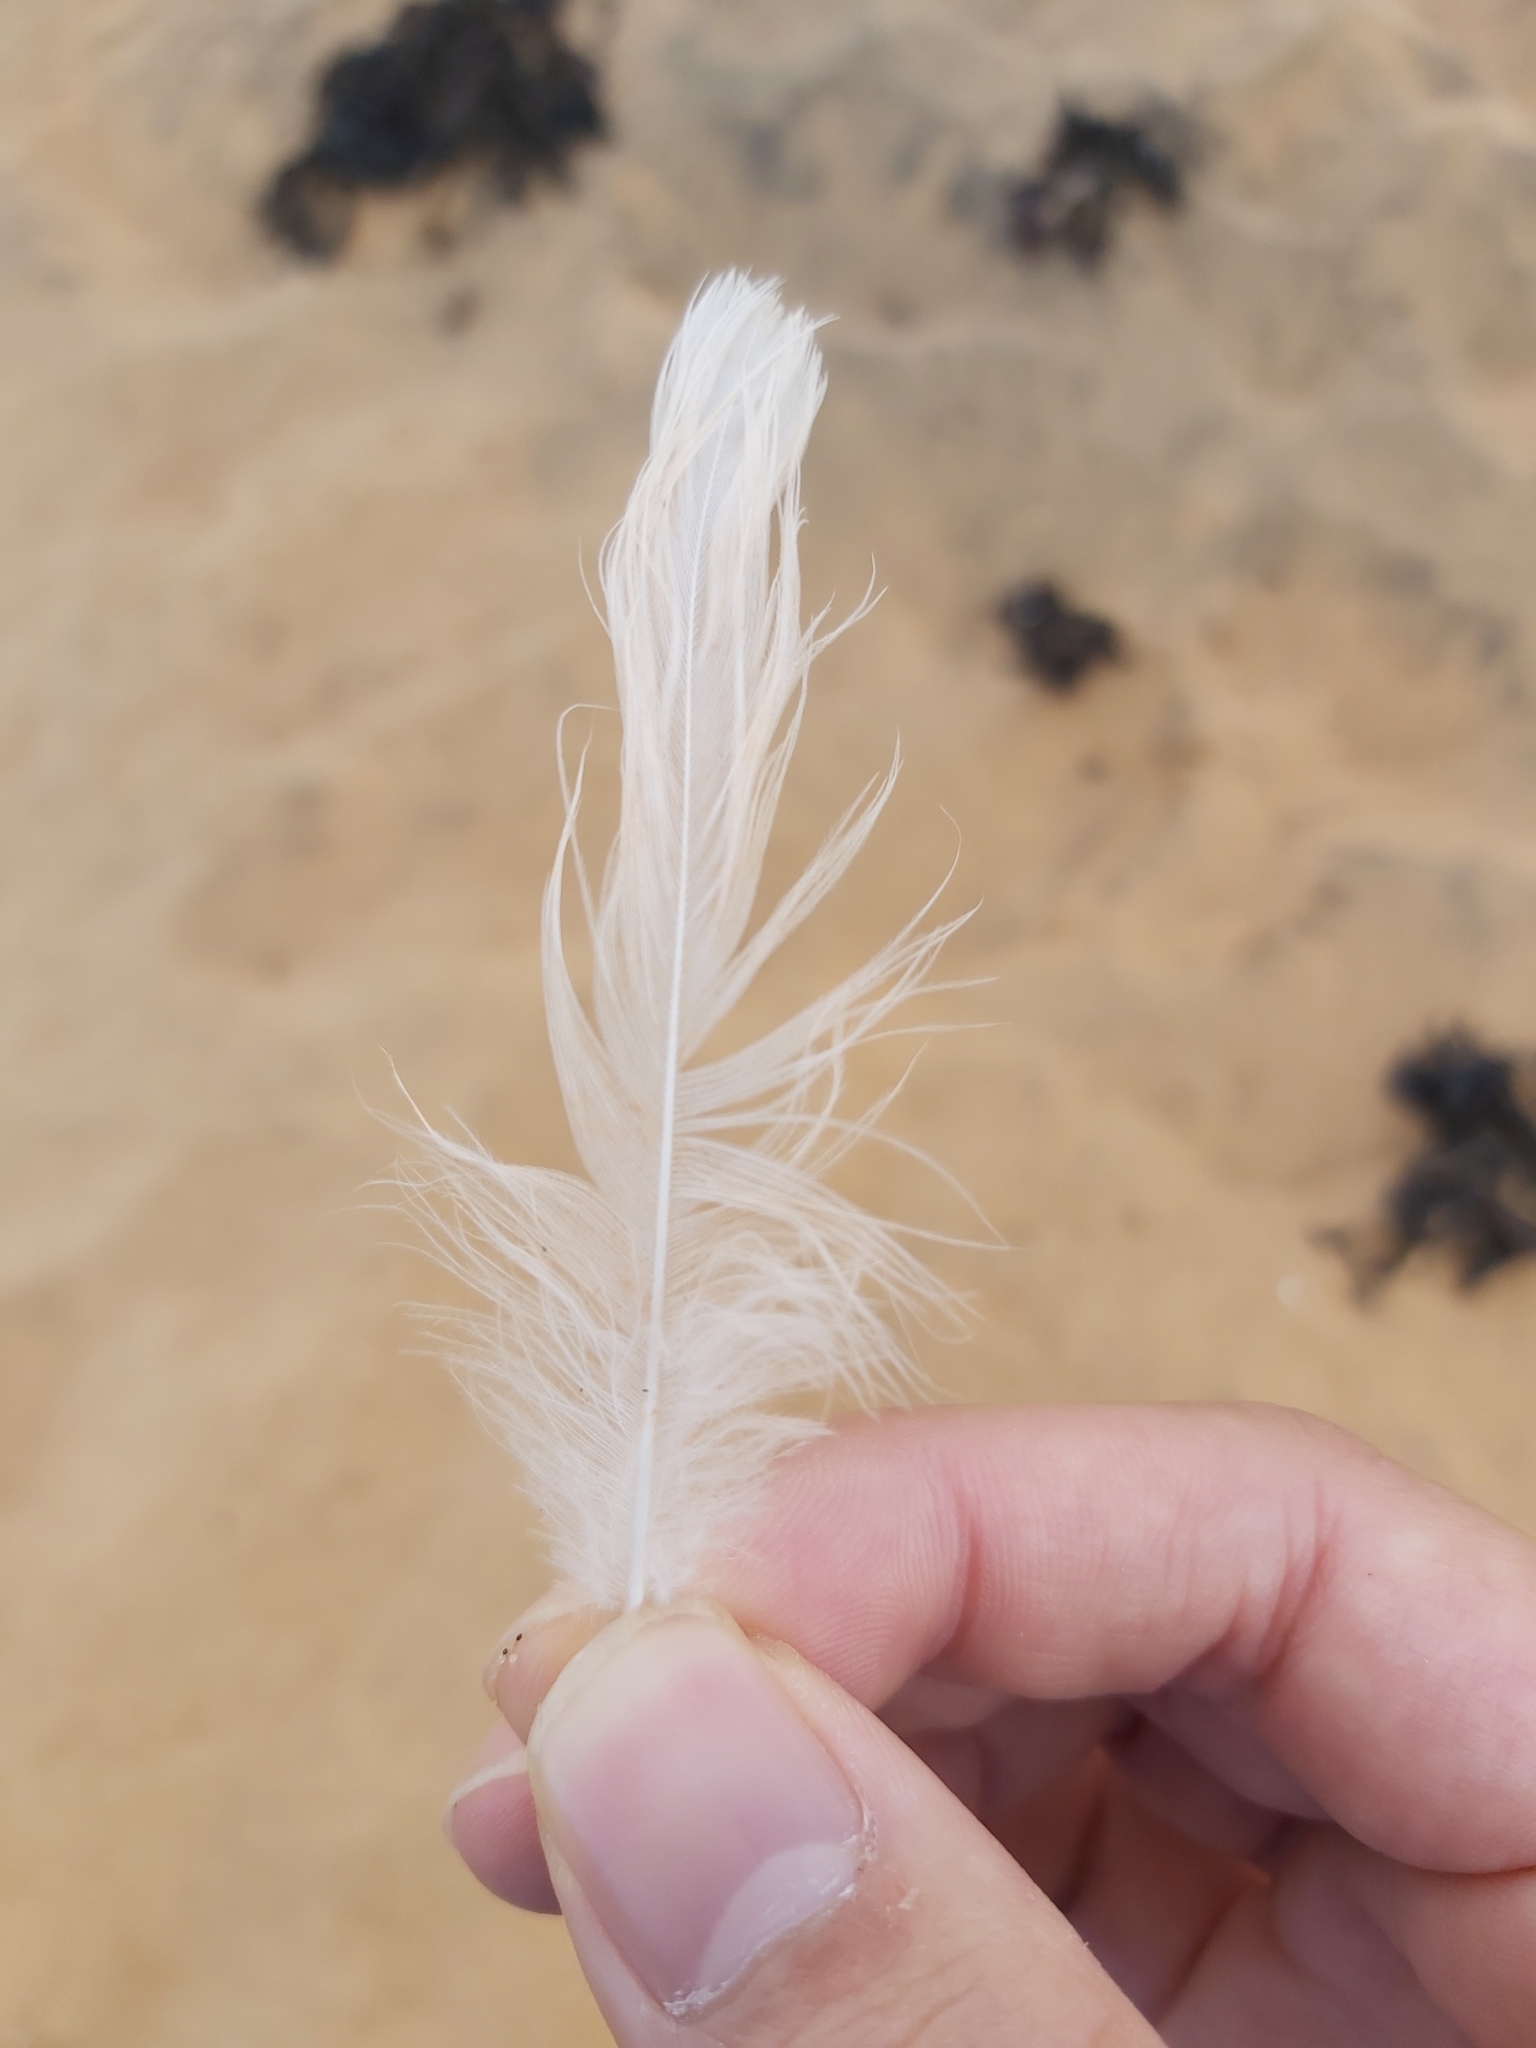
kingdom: Animalia
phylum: Chordata
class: Aves
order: Charadriiformes
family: Laridae
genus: Chroicocephalus
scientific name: Chroicocephalus novaehollandiae
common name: Silver gull
